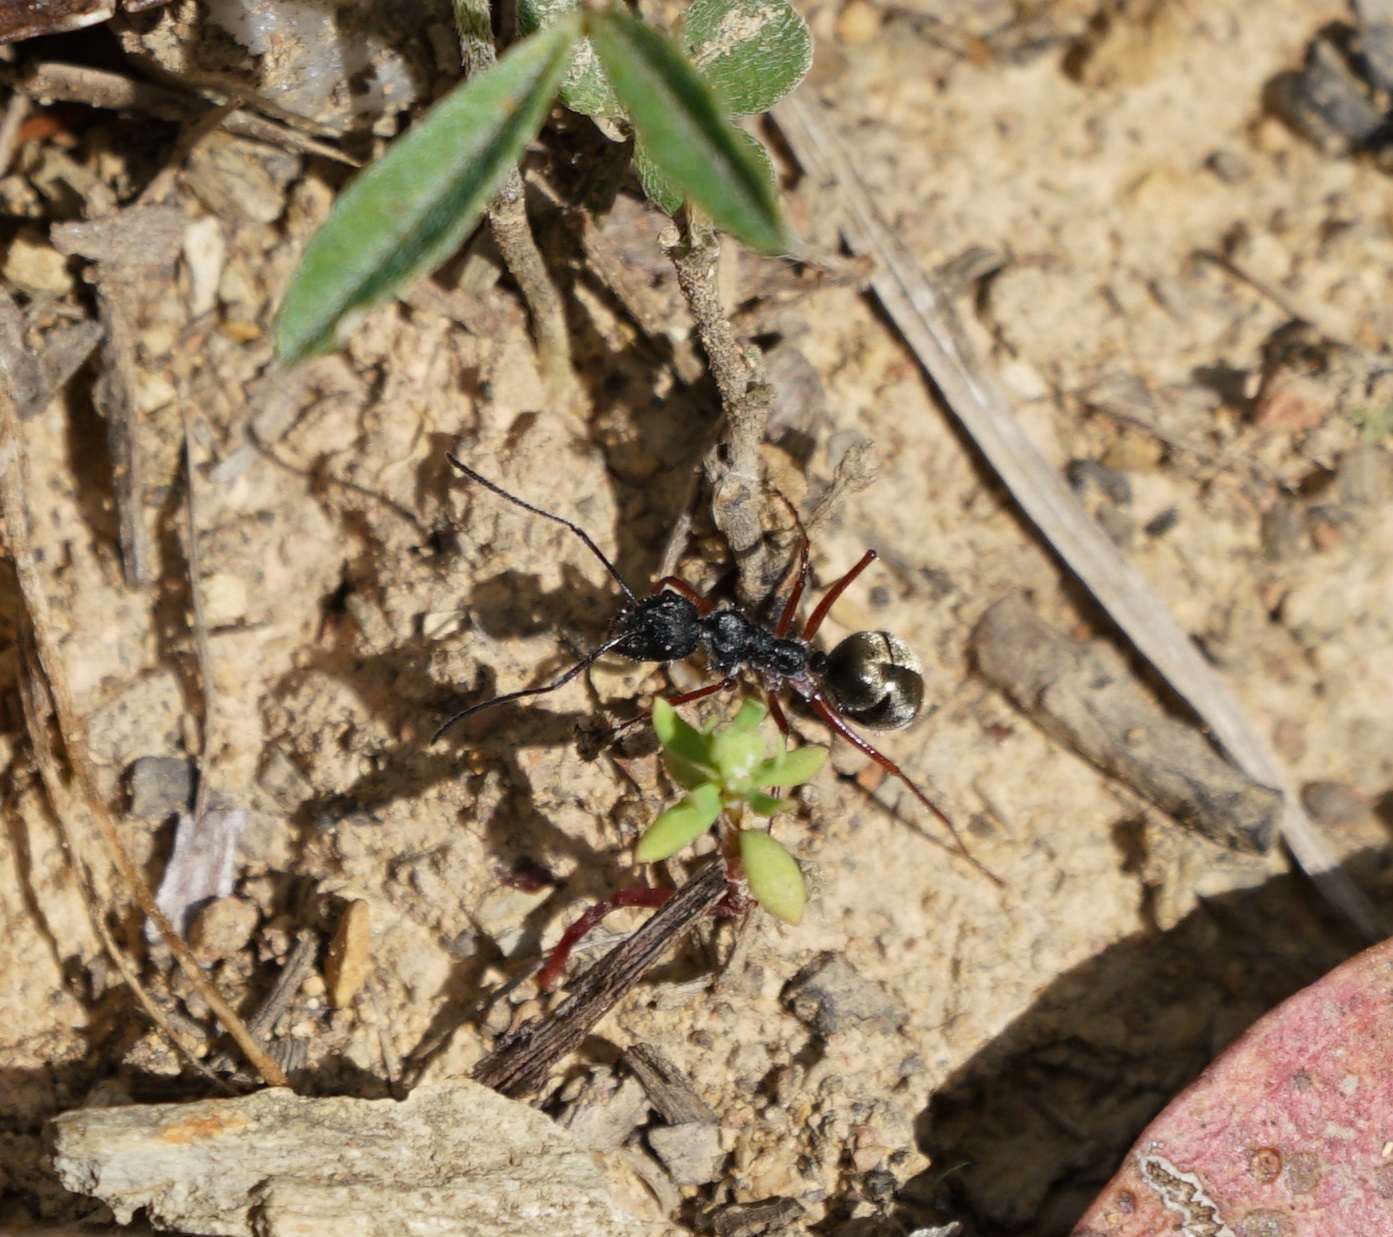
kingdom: Animalia
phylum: Arthropoda
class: Insecta
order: Hymenoptera
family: Formicidae
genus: Camponotus
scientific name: Camponotus suffusus
